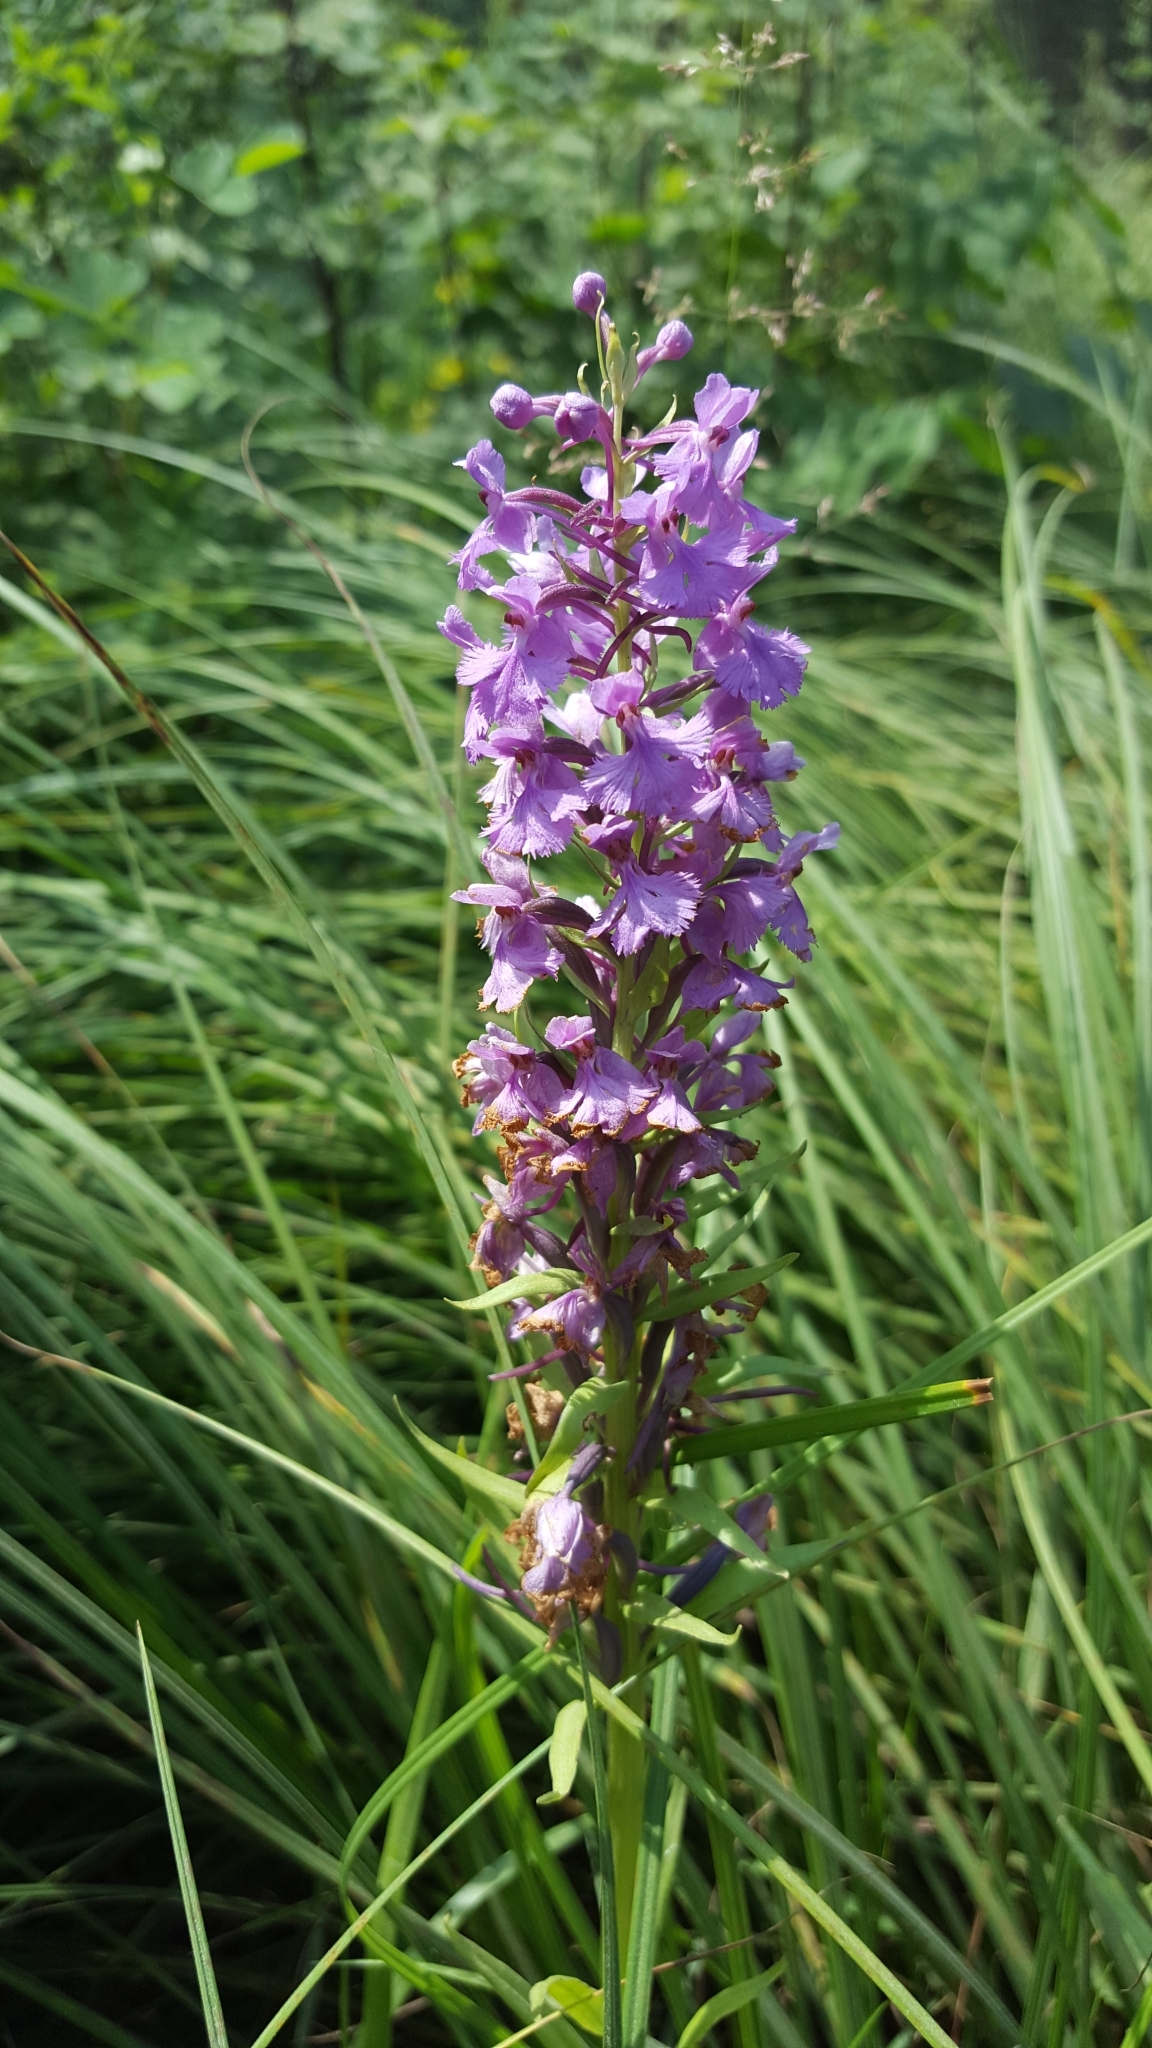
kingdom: Plantae
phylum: Tracheophyta
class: Liliopsida
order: Asparagales
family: Orchidaceae
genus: Platanthera
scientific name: Platanthera psycodes
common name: Lesser purple fringed orchid
